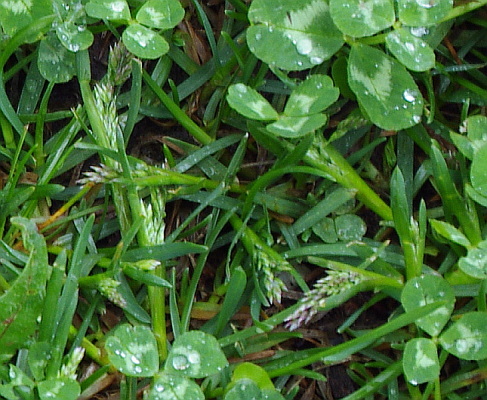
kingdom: Plantae
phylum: Tracheophyta
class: Liliopsida
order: Poales
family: Poaceae
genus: Poa
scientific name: Poa annua
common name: Annual bluegrass
